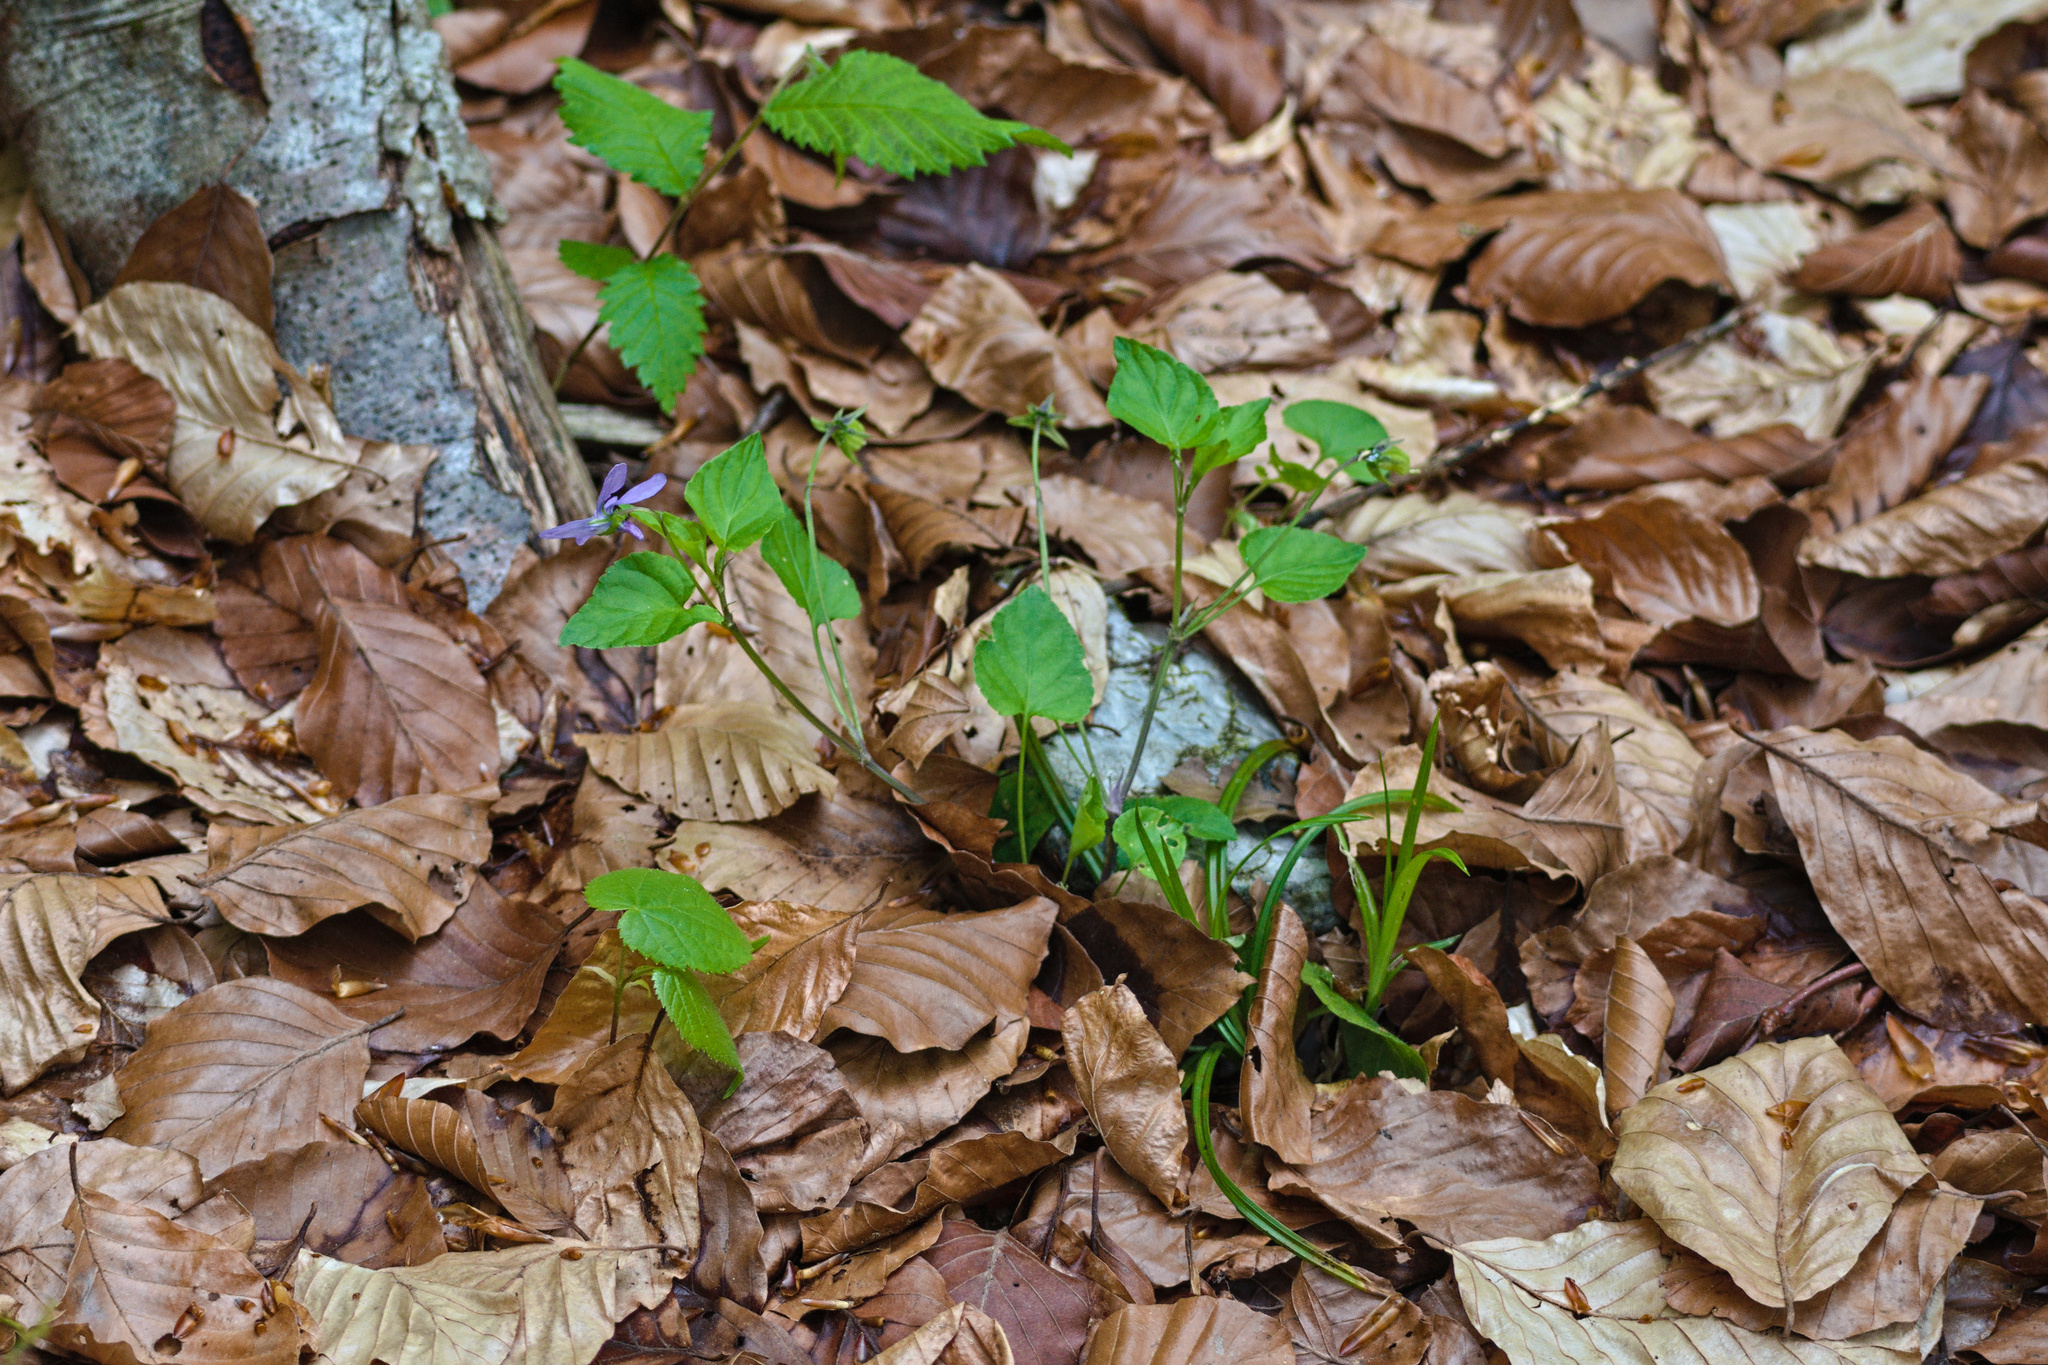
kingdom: Plantae
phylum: Tracheophyta
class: Magnoliopsida
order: Malpighiales
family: Violaceae
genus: Viola
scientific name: Viola reichenbachiana
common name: Early dog-violet
